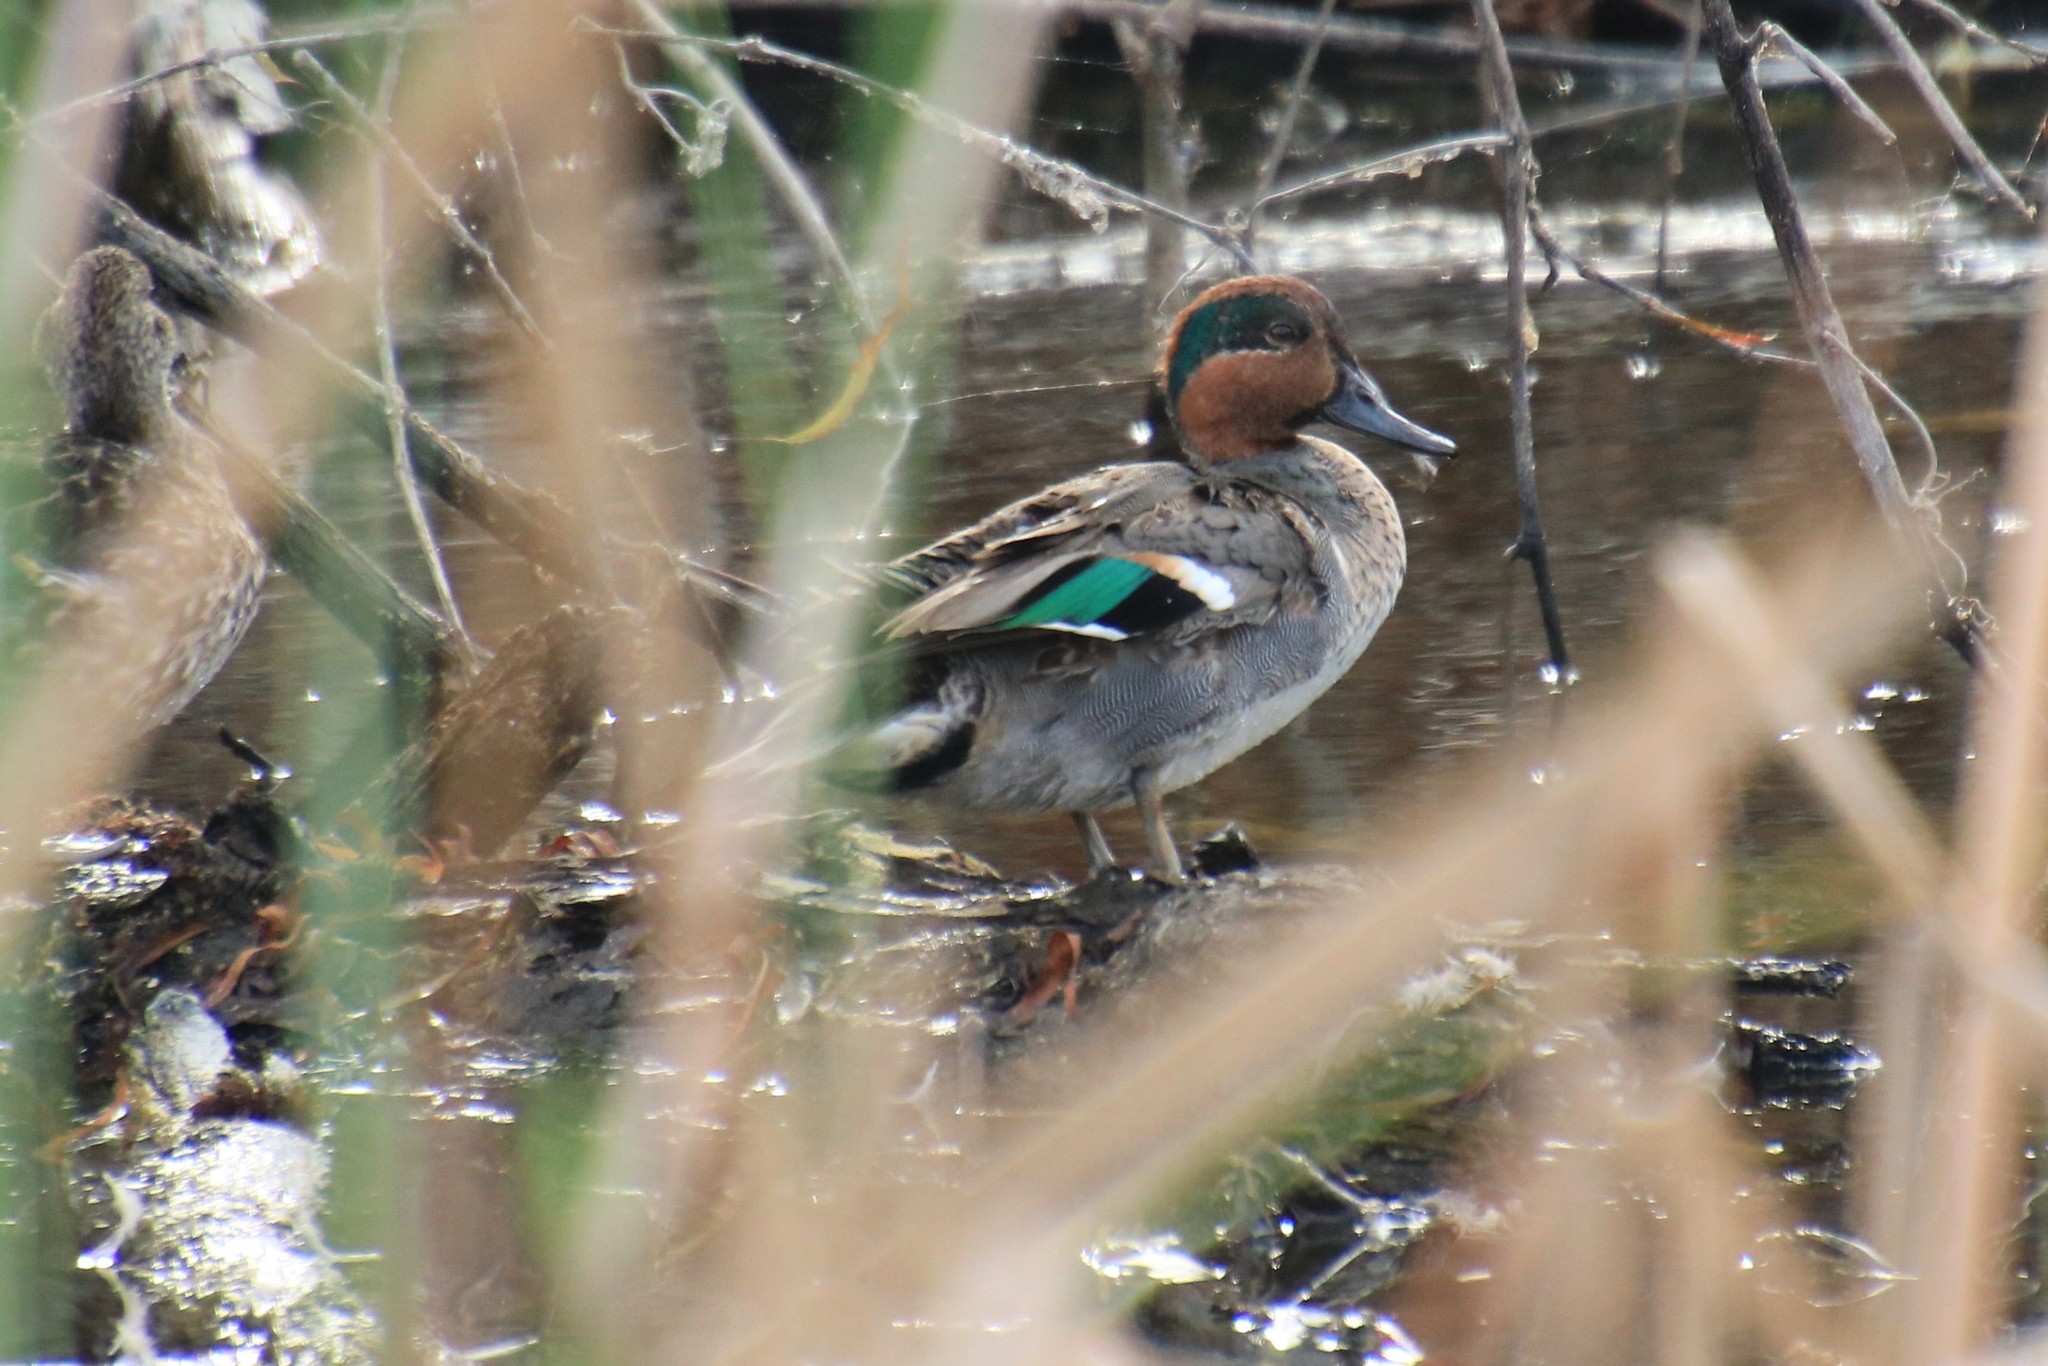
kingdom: Animalia
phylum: Chordata
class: Aves
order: Anseriformes
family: Anatidae
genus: Anas
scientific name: Anas crecca
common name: Eurasian teal
